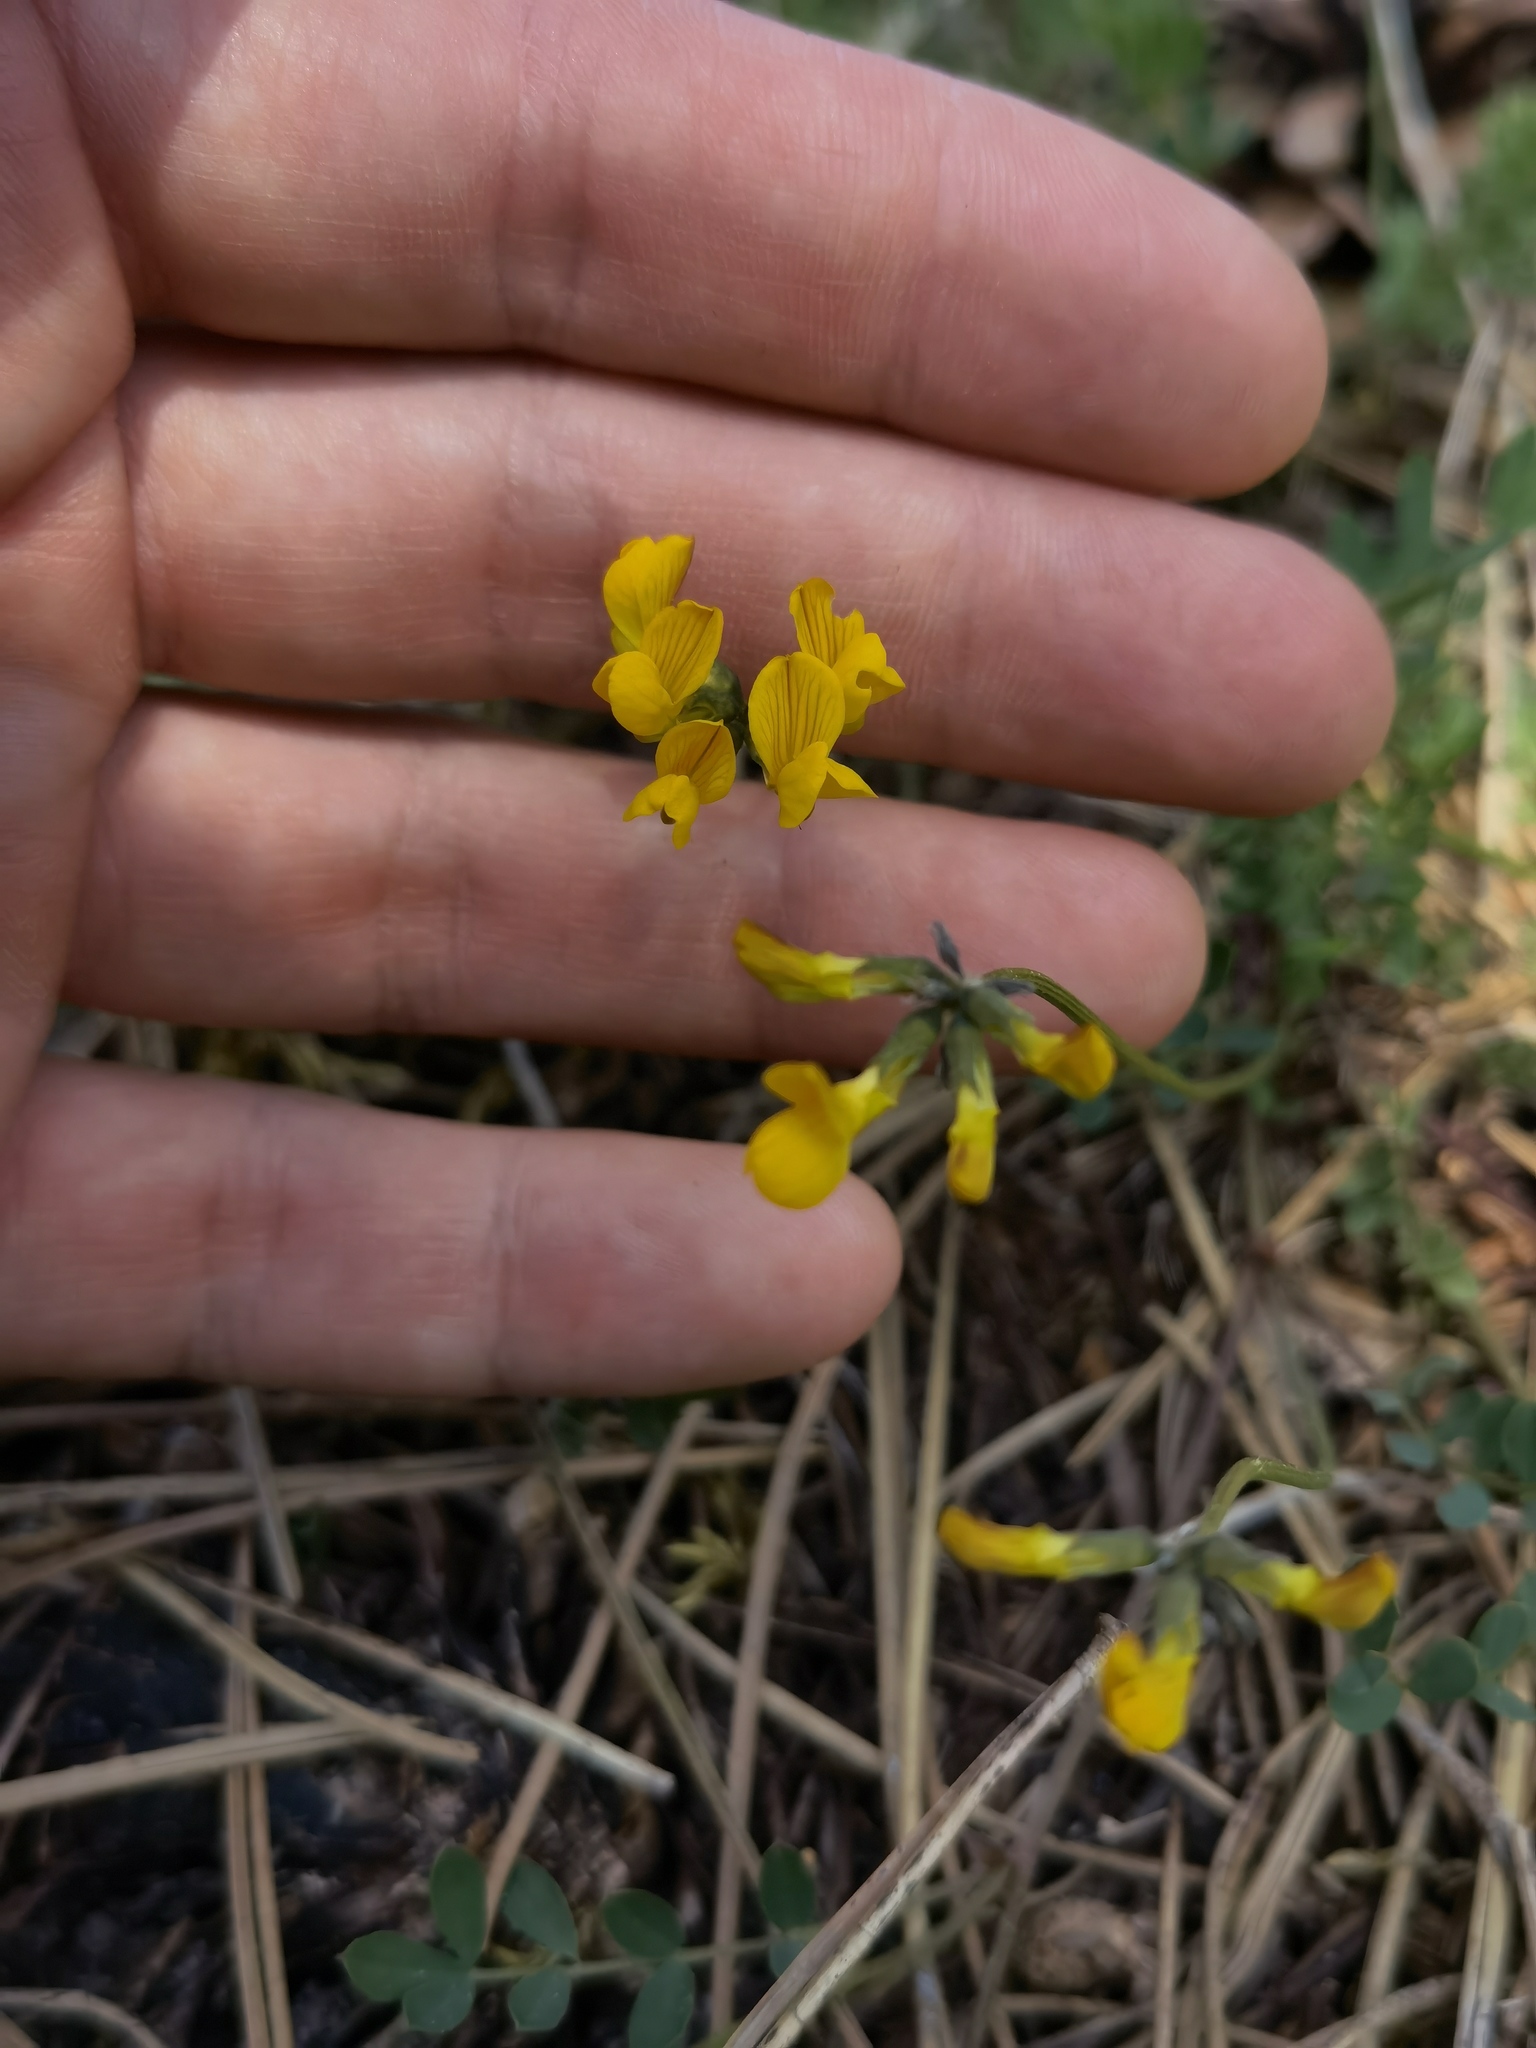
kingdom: Plantae
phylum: Tracheophyta
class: Magnoliopsida
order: Fabales
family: Fabaceae
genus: Hippocrepis
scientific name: Hippocrepis comosa
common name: Horseshoe vetch
